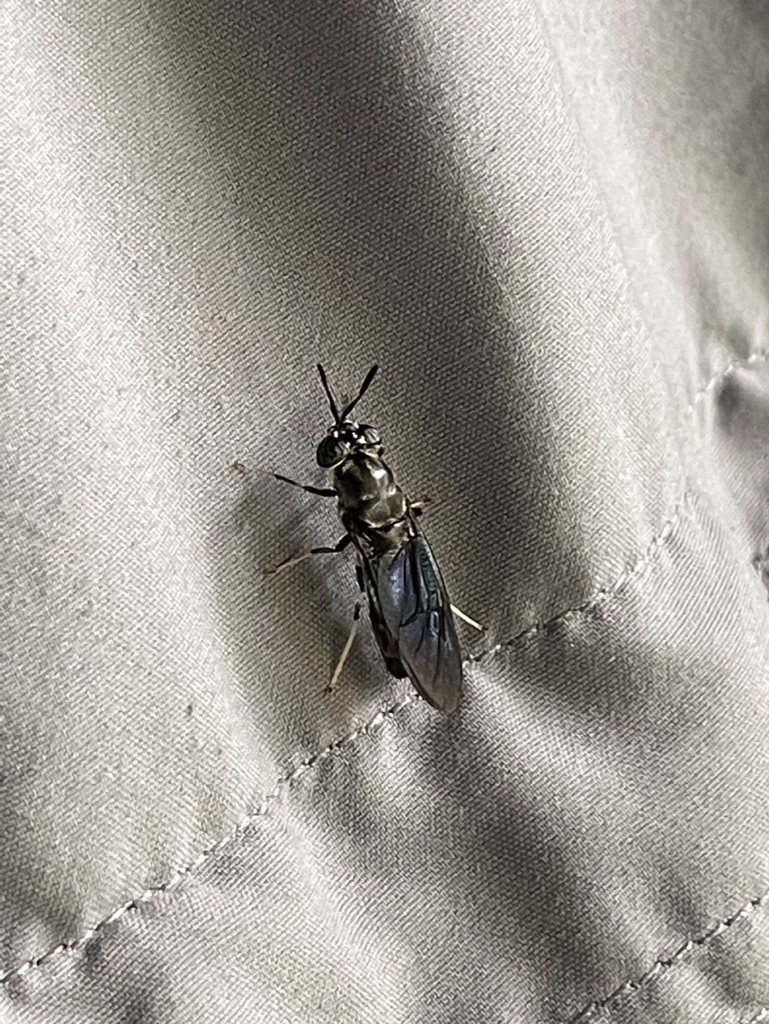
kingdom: Animalia
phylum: Arthropoda
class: Insecta
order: Diptera
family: Stratiomyidae
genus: Hermetia
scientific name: Hermetia illucens
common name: Black soldier fly
